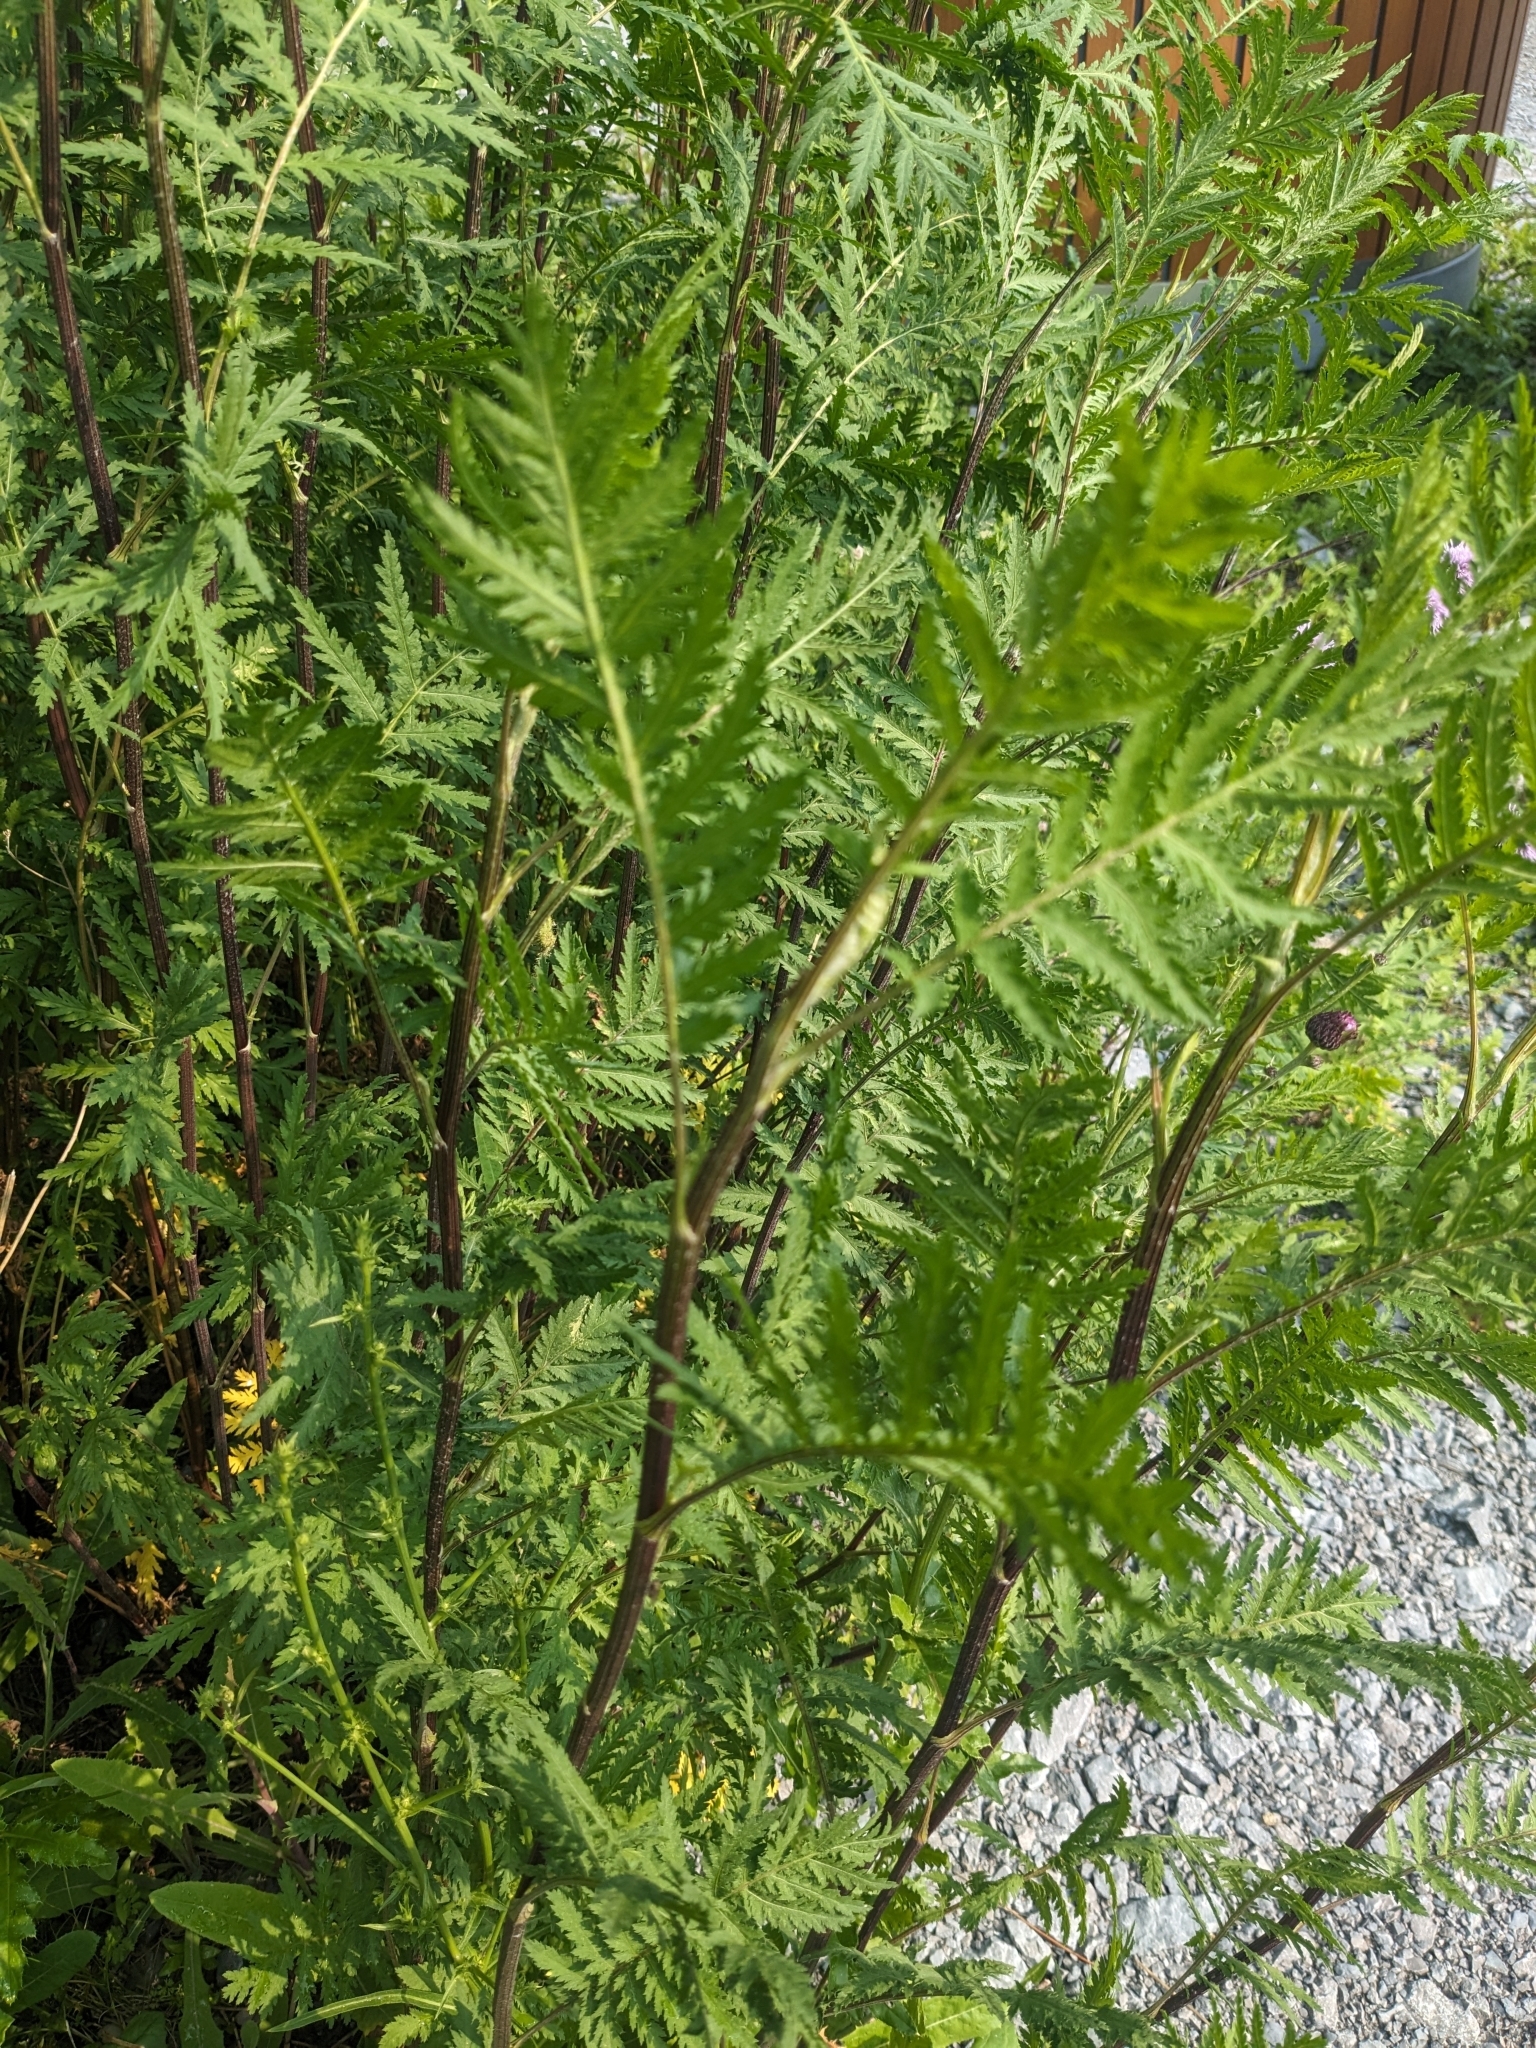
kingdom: Plantae
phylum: Tracheophyta
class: Magnoliopsida
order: Asterales
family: Asteraceae
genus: Tanacetum
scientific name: Tanacetum vulgare
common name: Common tansy
